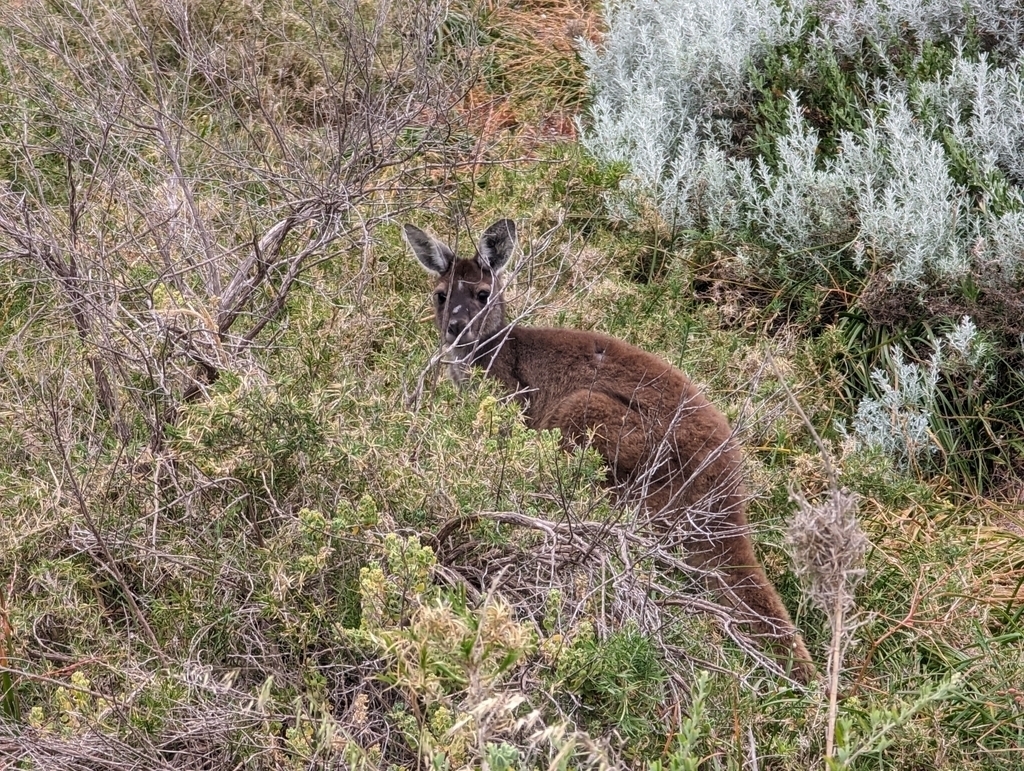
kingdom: Viruses
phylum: Nucleocytoviricota
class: Pokkesviricetes
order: Chitovirales
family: Poxviridae
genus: Macropopoxvirus
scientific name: Macropopoxvirus Western kangaroopox virus
